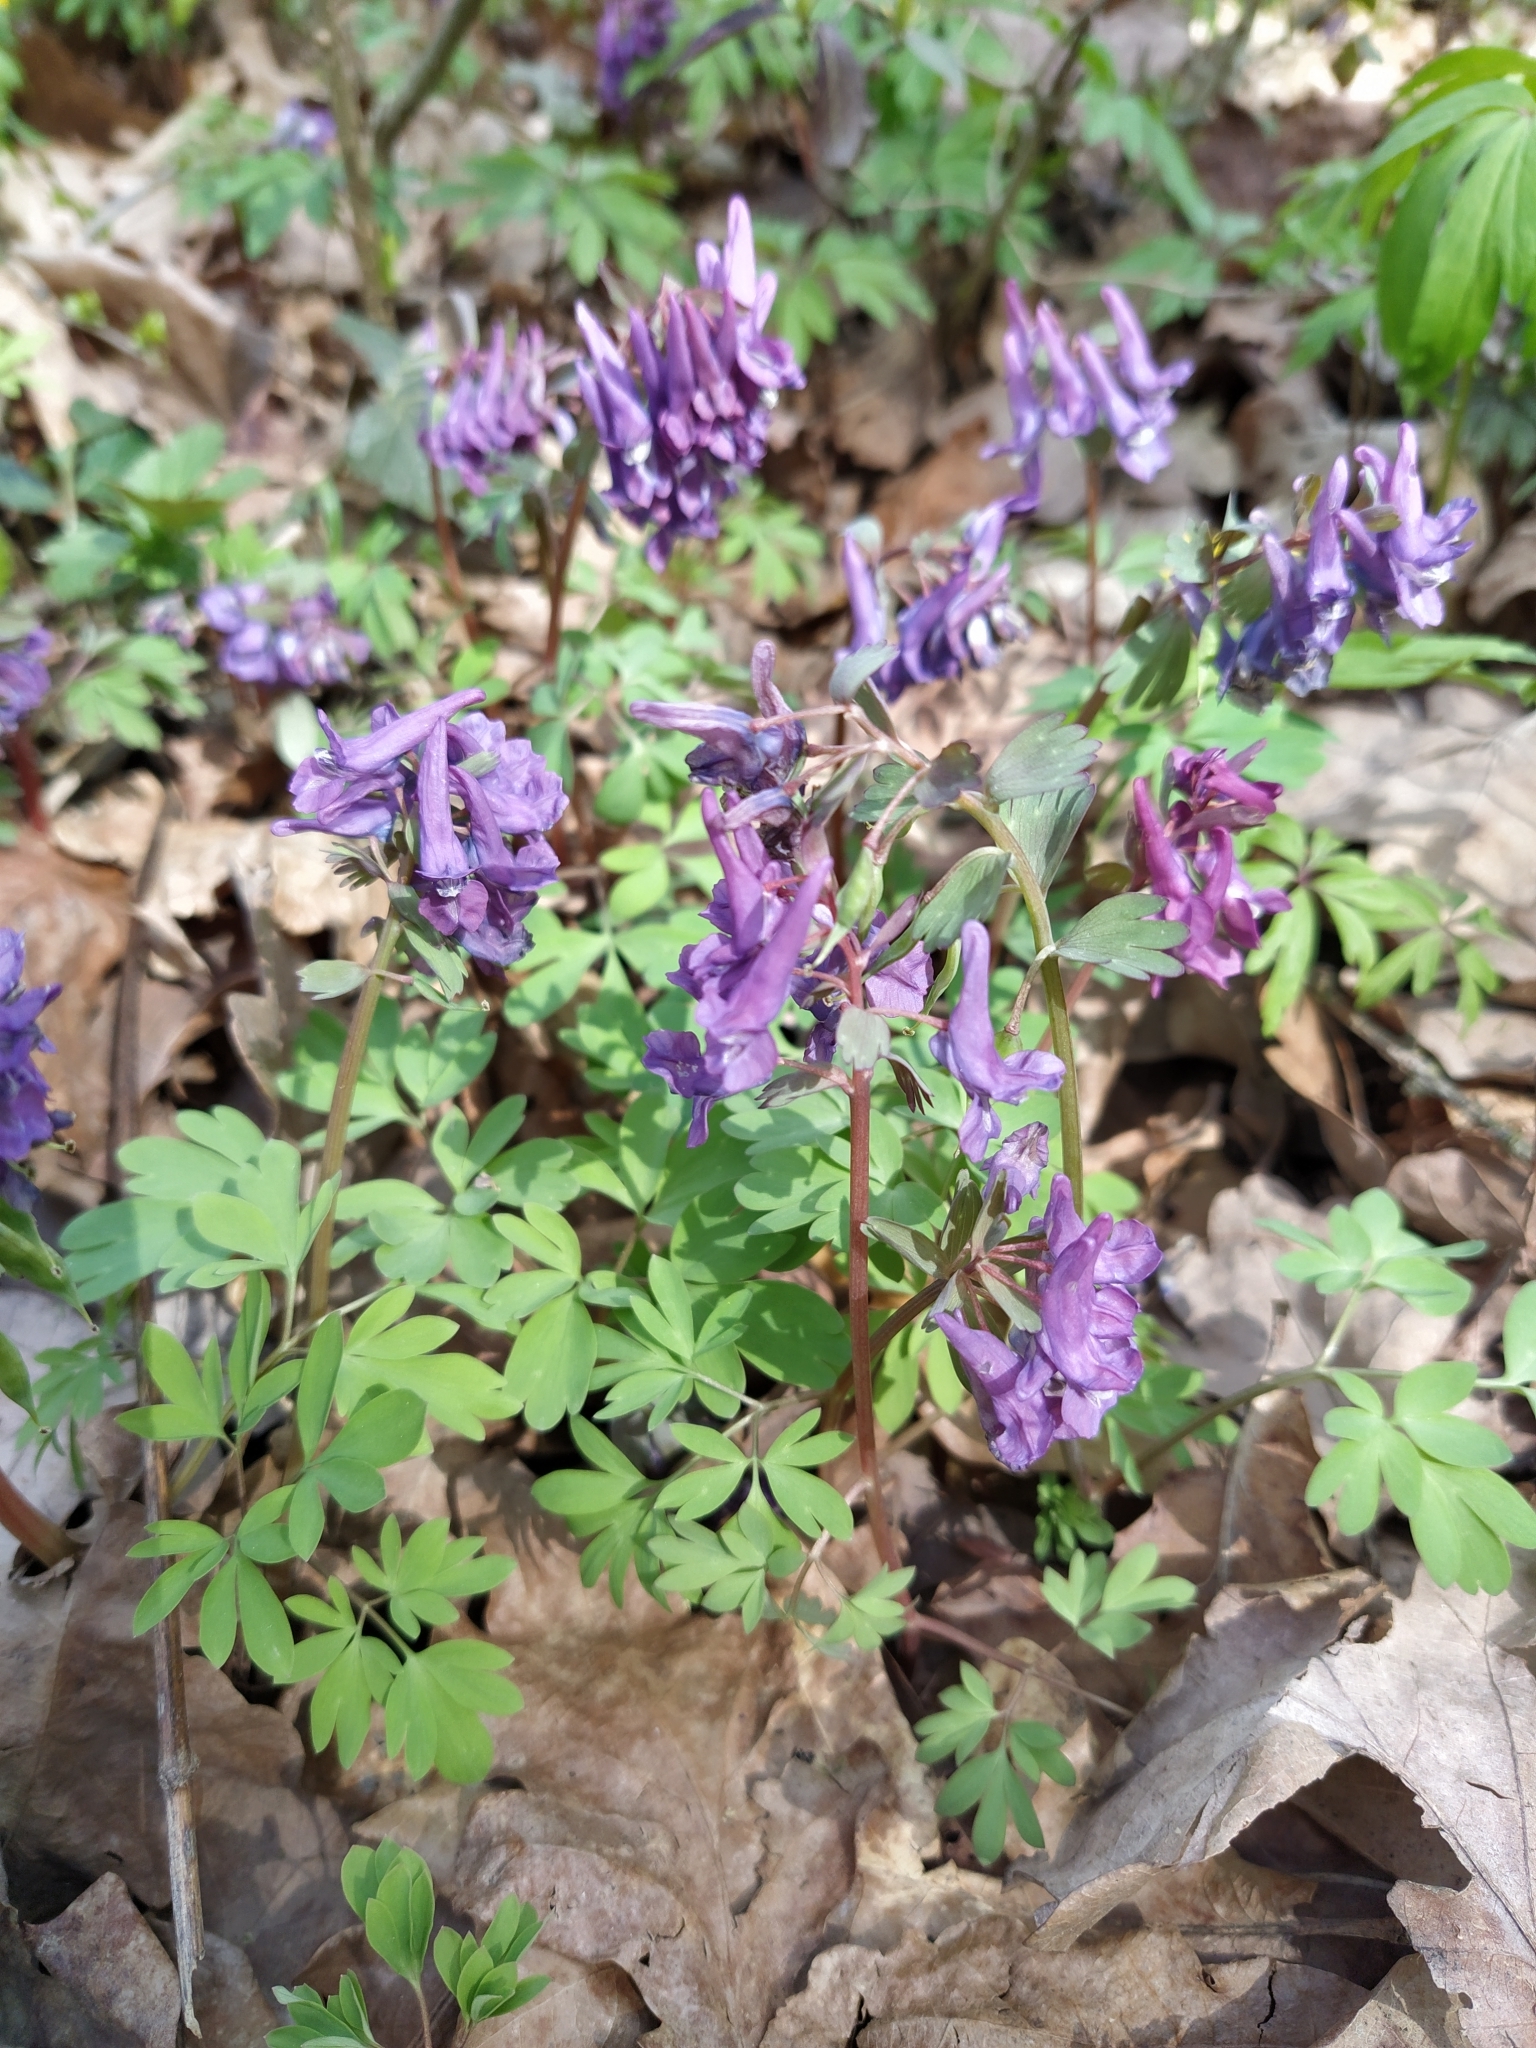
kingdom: Plantae
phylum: Tracheophyta
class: Magnoliopsida
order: Ranunculales
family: Papaveraceae
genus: Corydalis
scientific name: Corydalis solida
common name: Bird-in-a-bush
